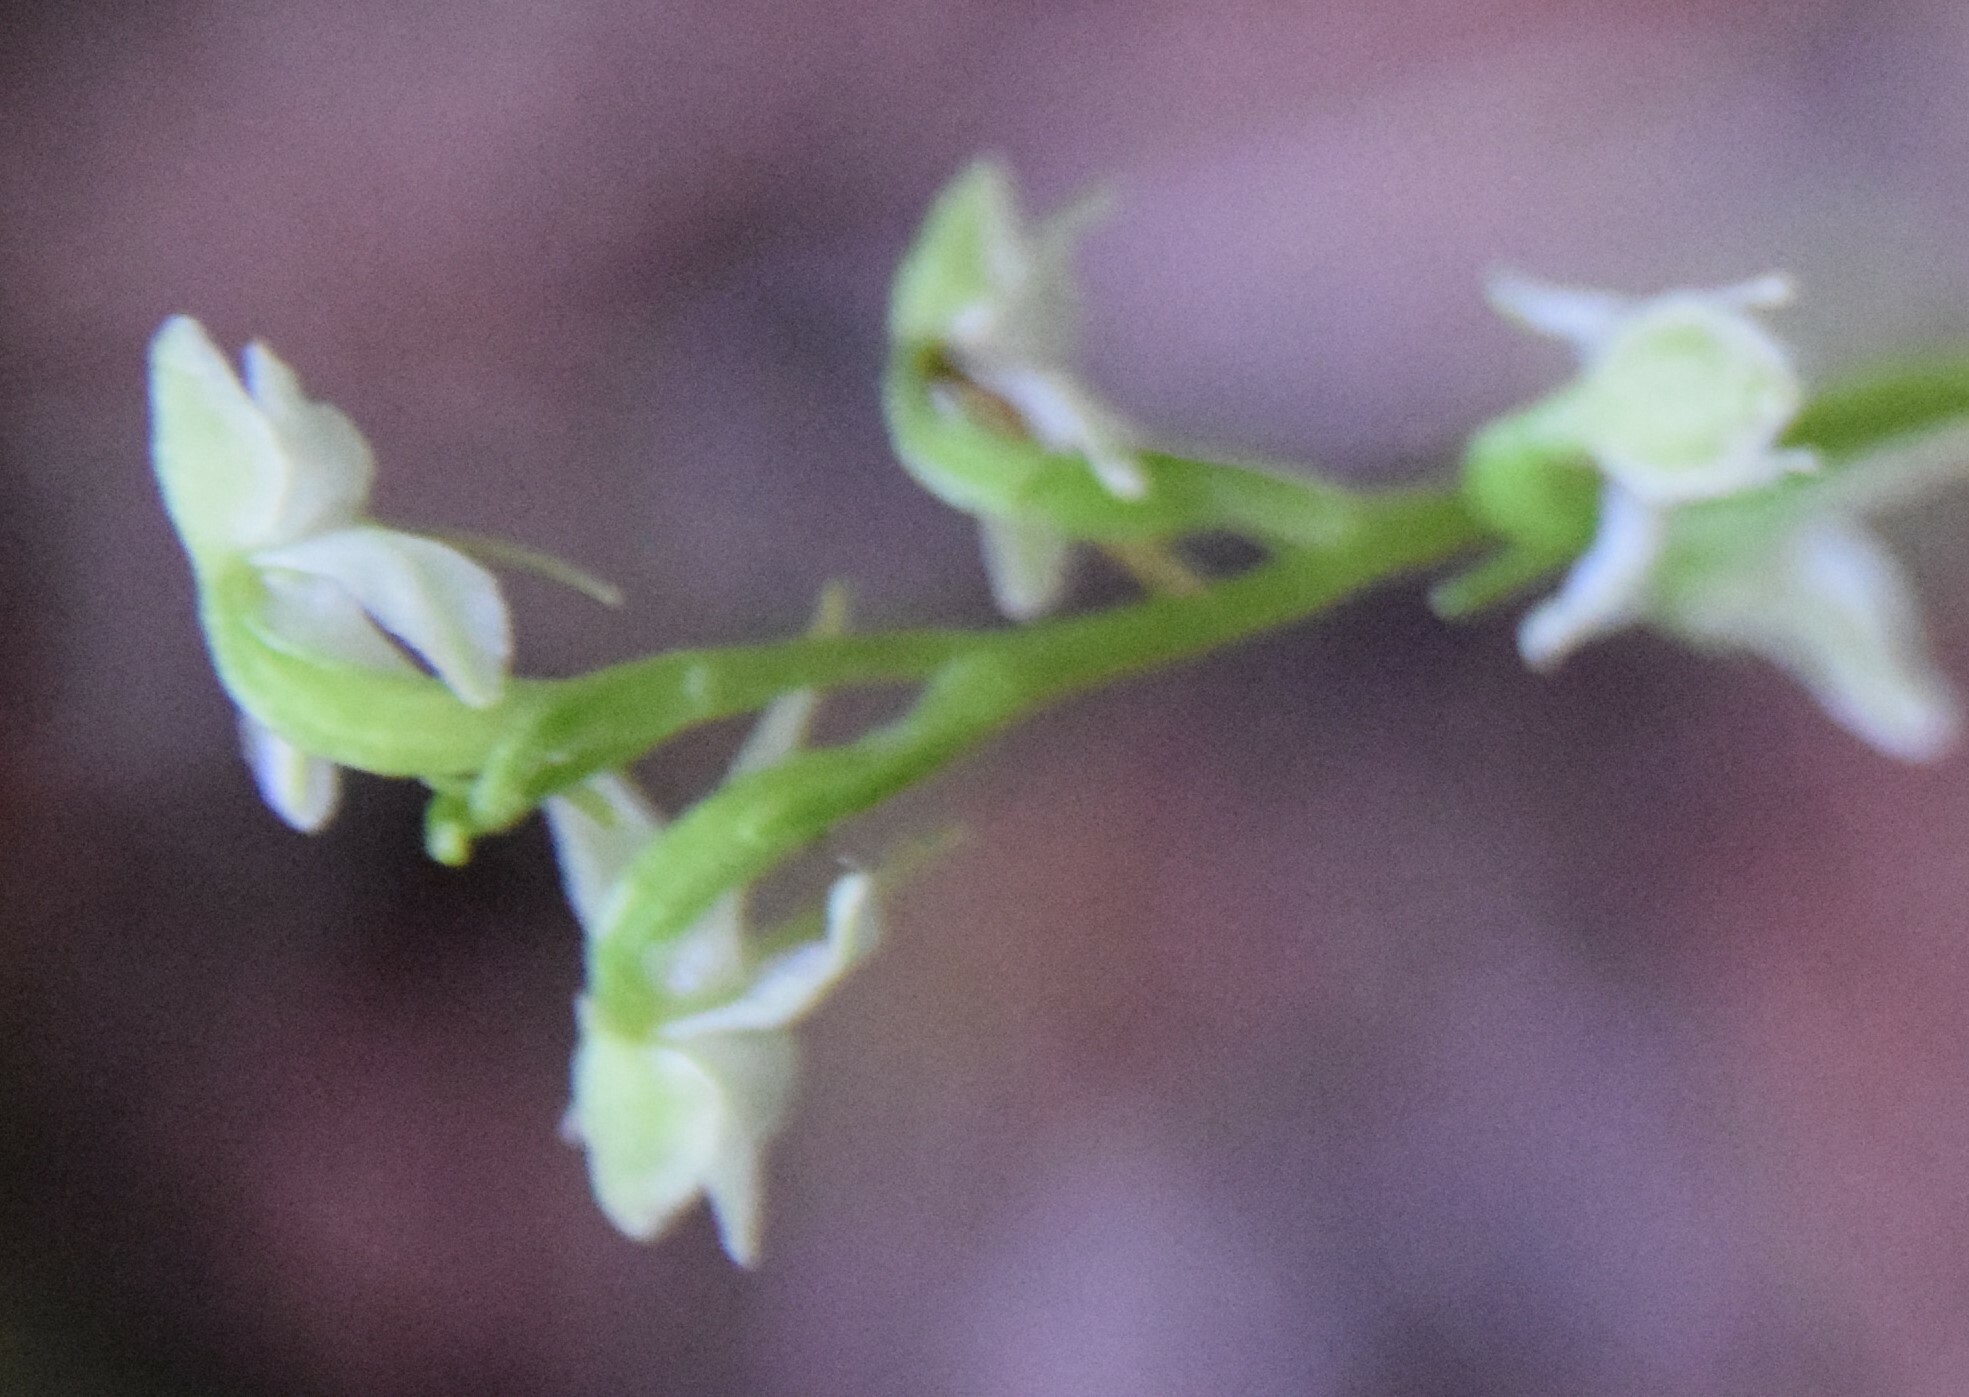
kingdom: Plantae
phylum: Tracheophyta
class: Liliopsida
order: Asparagales
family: Orchidaceae
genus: Platanthera
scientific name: Platanthera obtusata
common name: Blunt bog orchid
